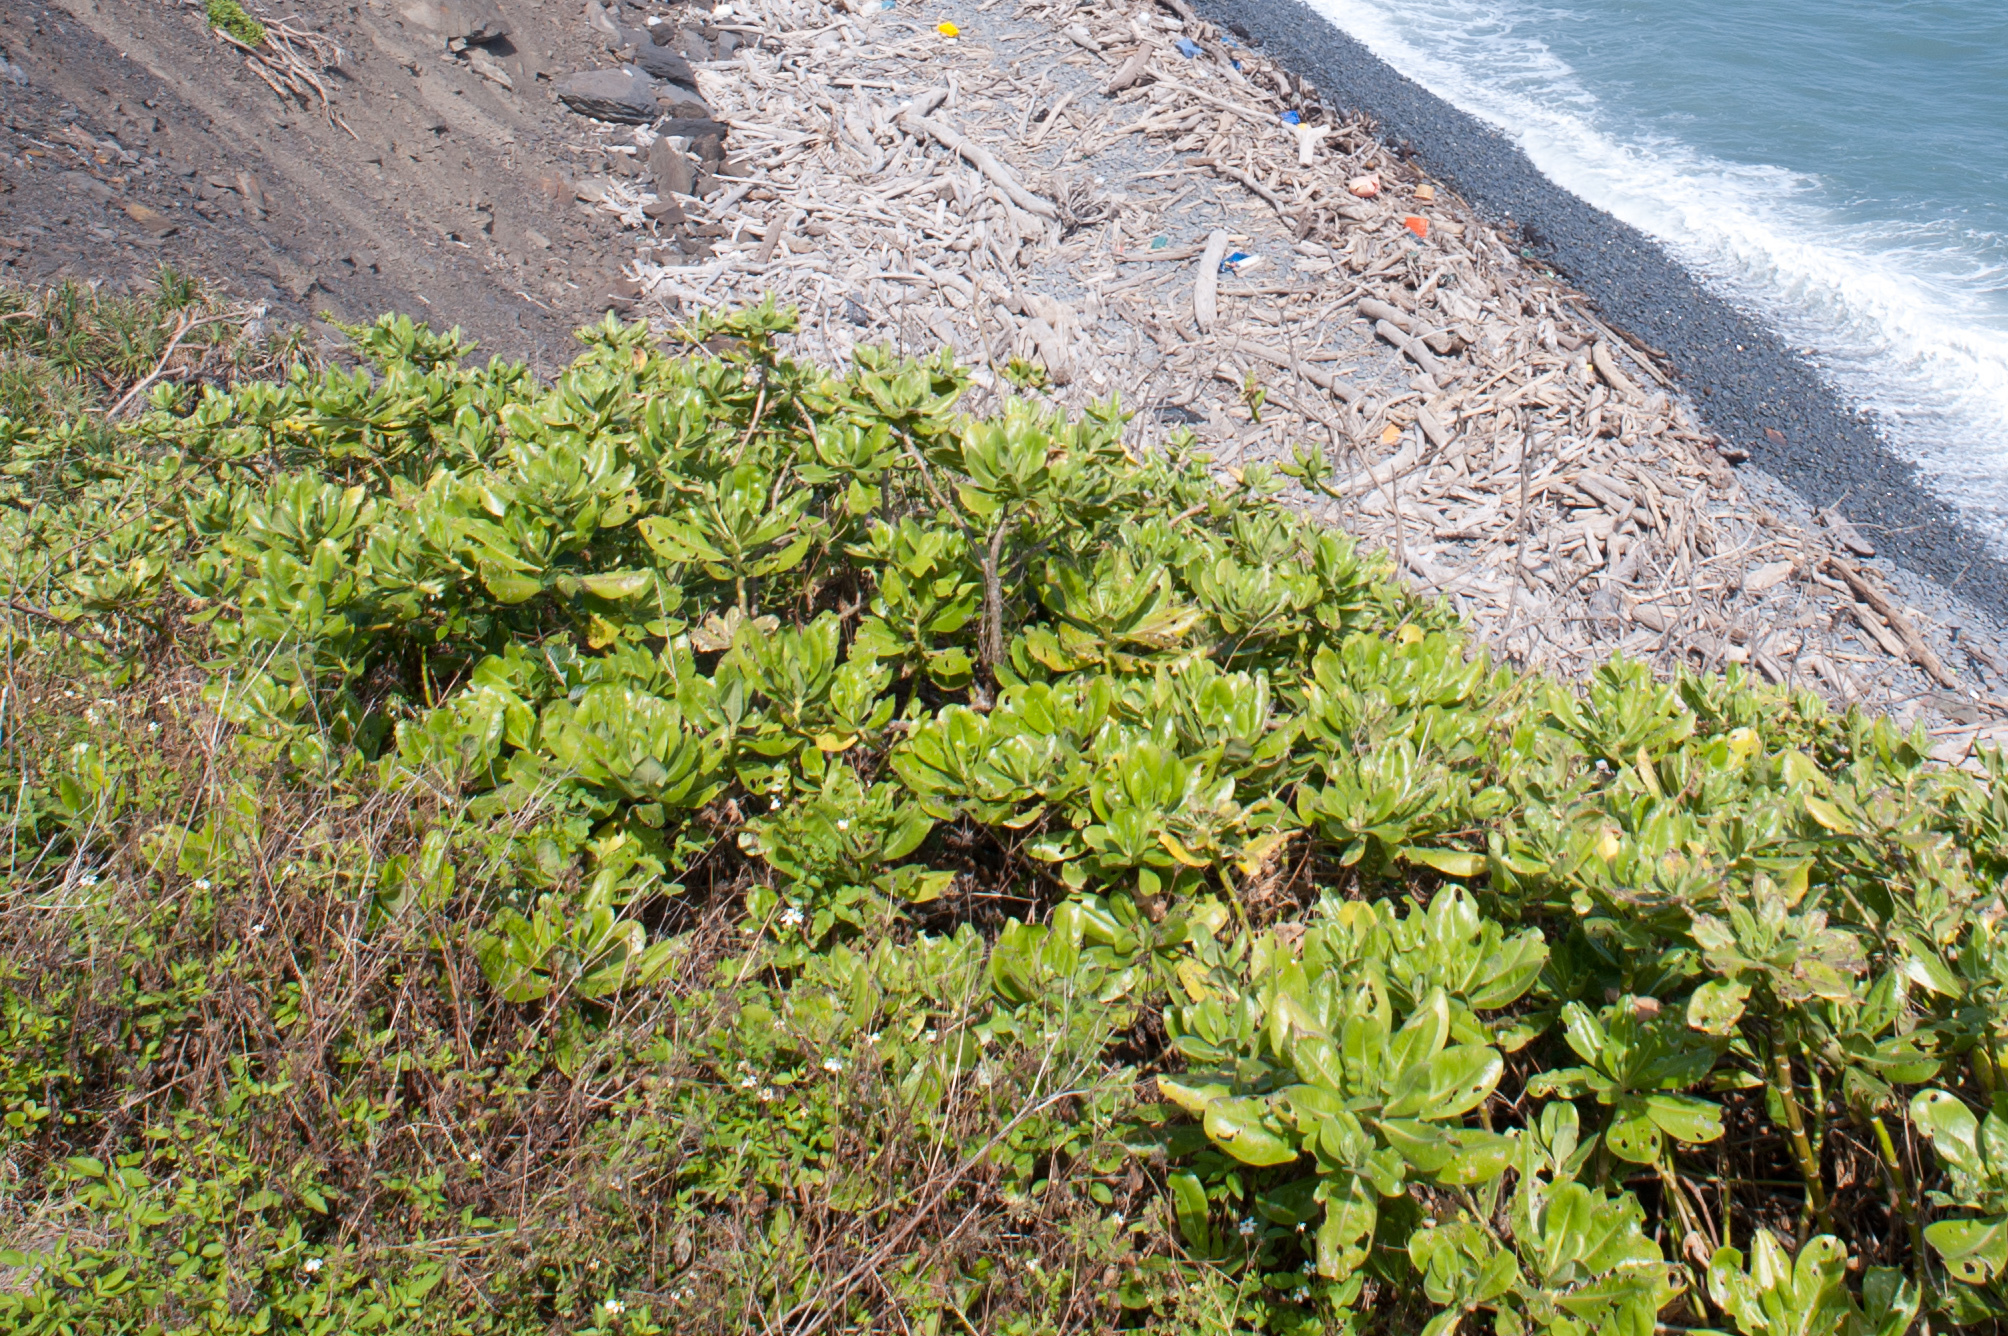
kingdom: Plantae
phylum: Tracheophyta
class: Magnoliopsida
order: Asterales
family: Goodeniaceae
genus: Scaevola
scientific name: Scaevola taccada
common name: Sea lettucetree
